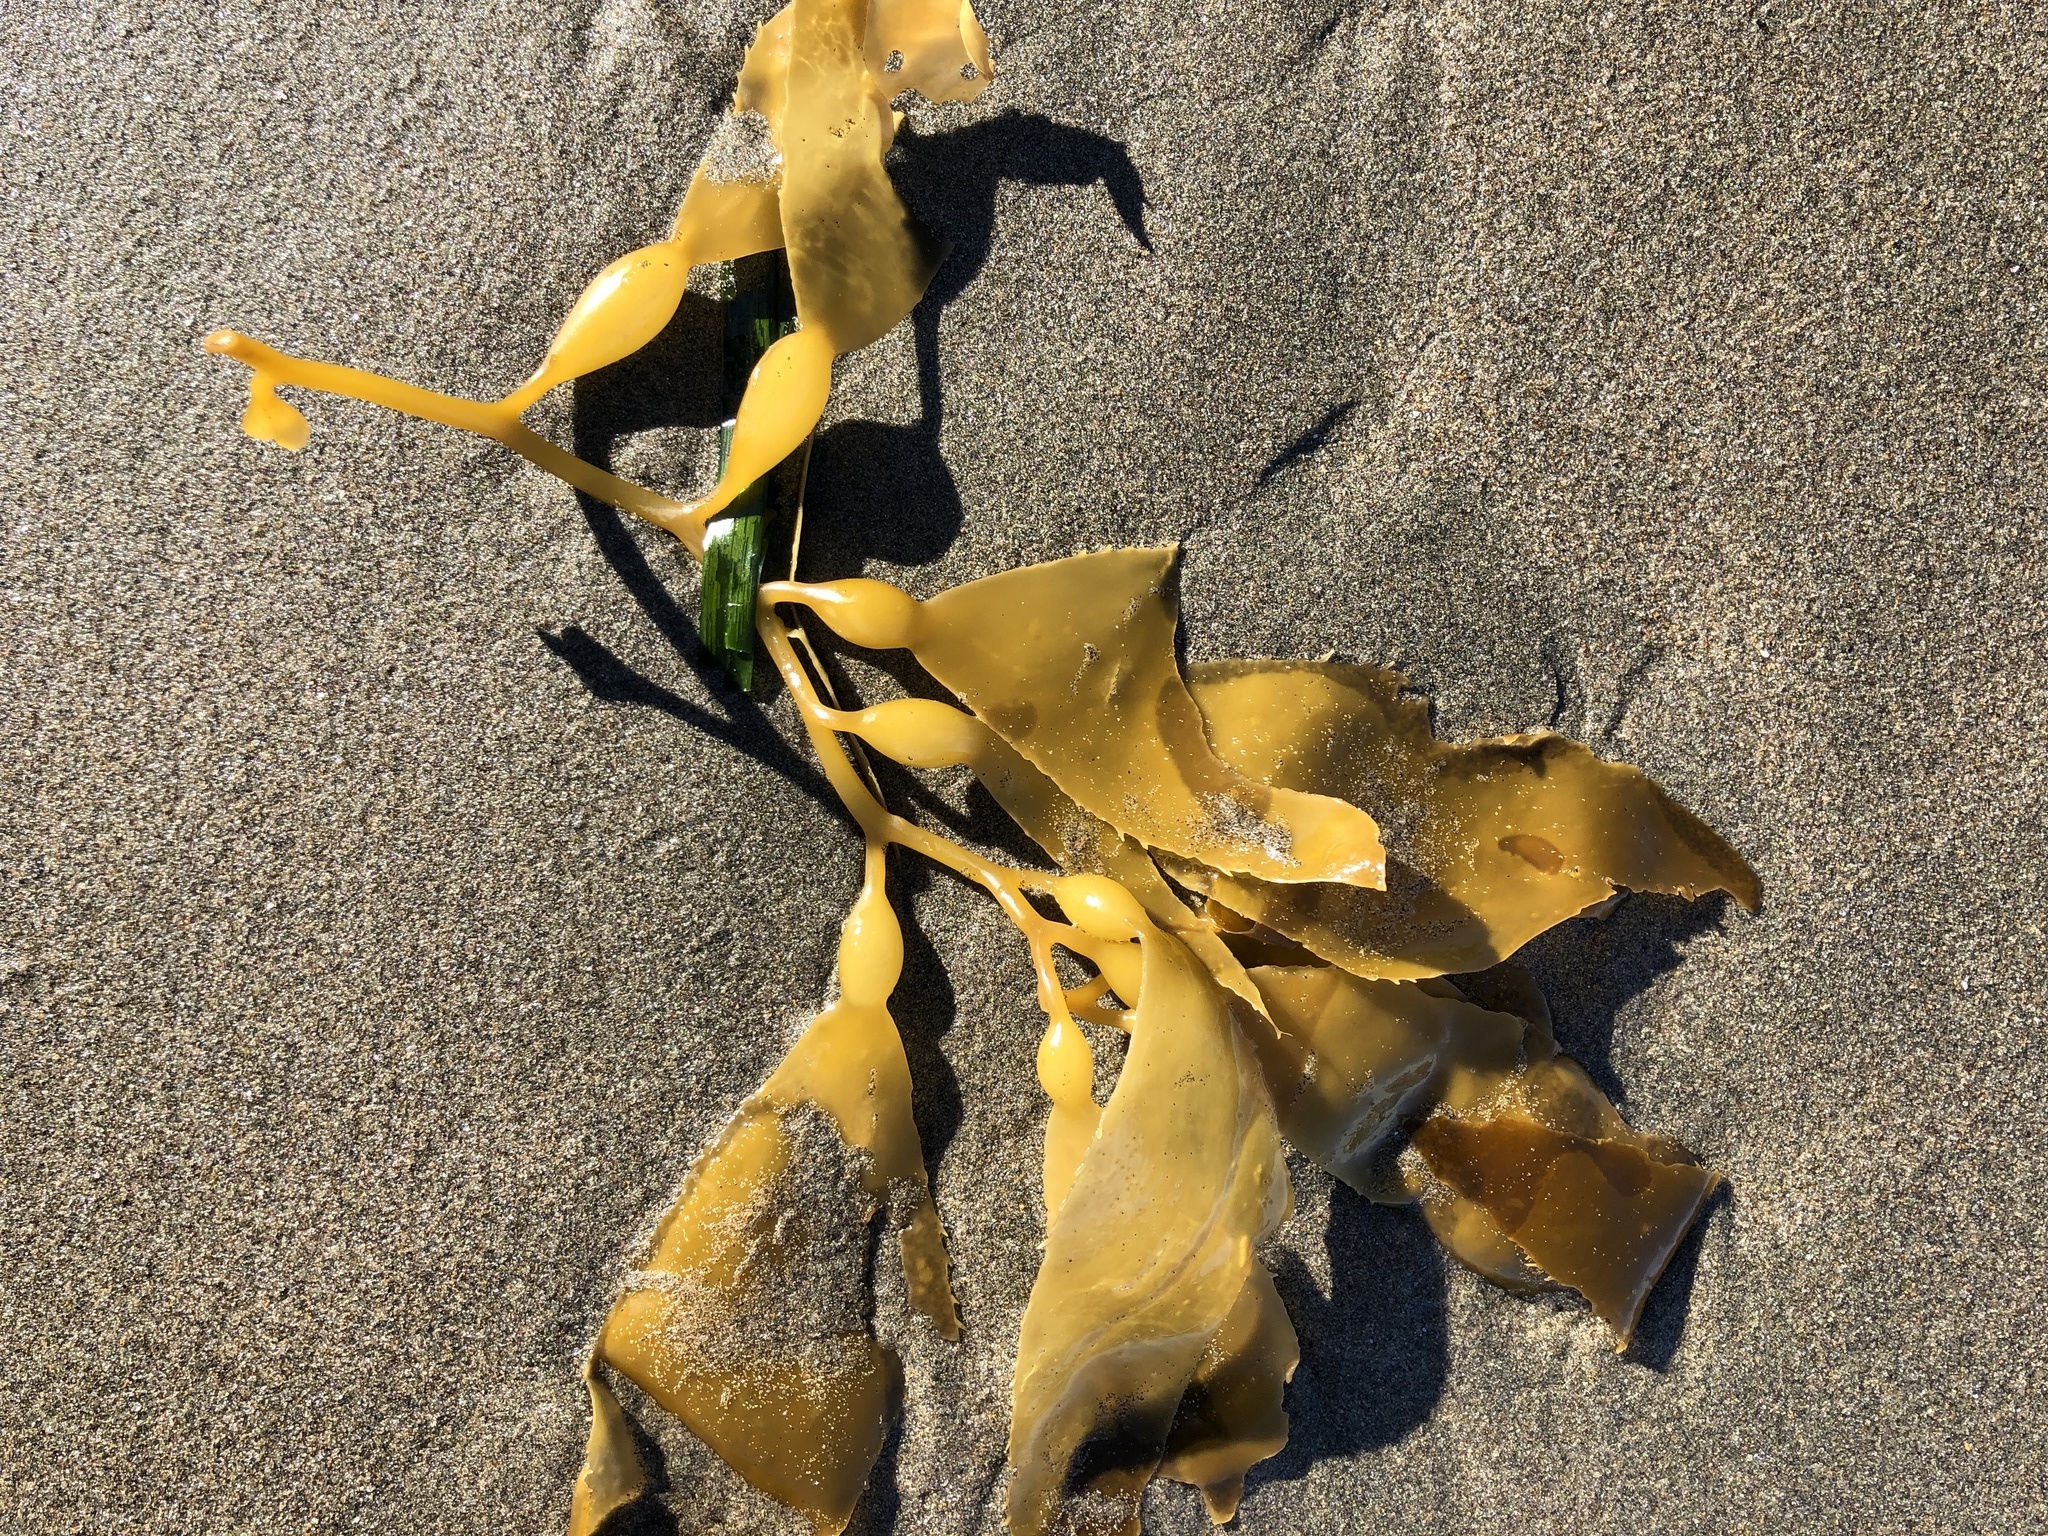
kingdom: Chromista
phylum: Ochrophyta
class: Phaeophyceae
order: Laminariales
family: Laminariaceae
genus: Macrocystis
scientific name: Macrocystis pyrifera
